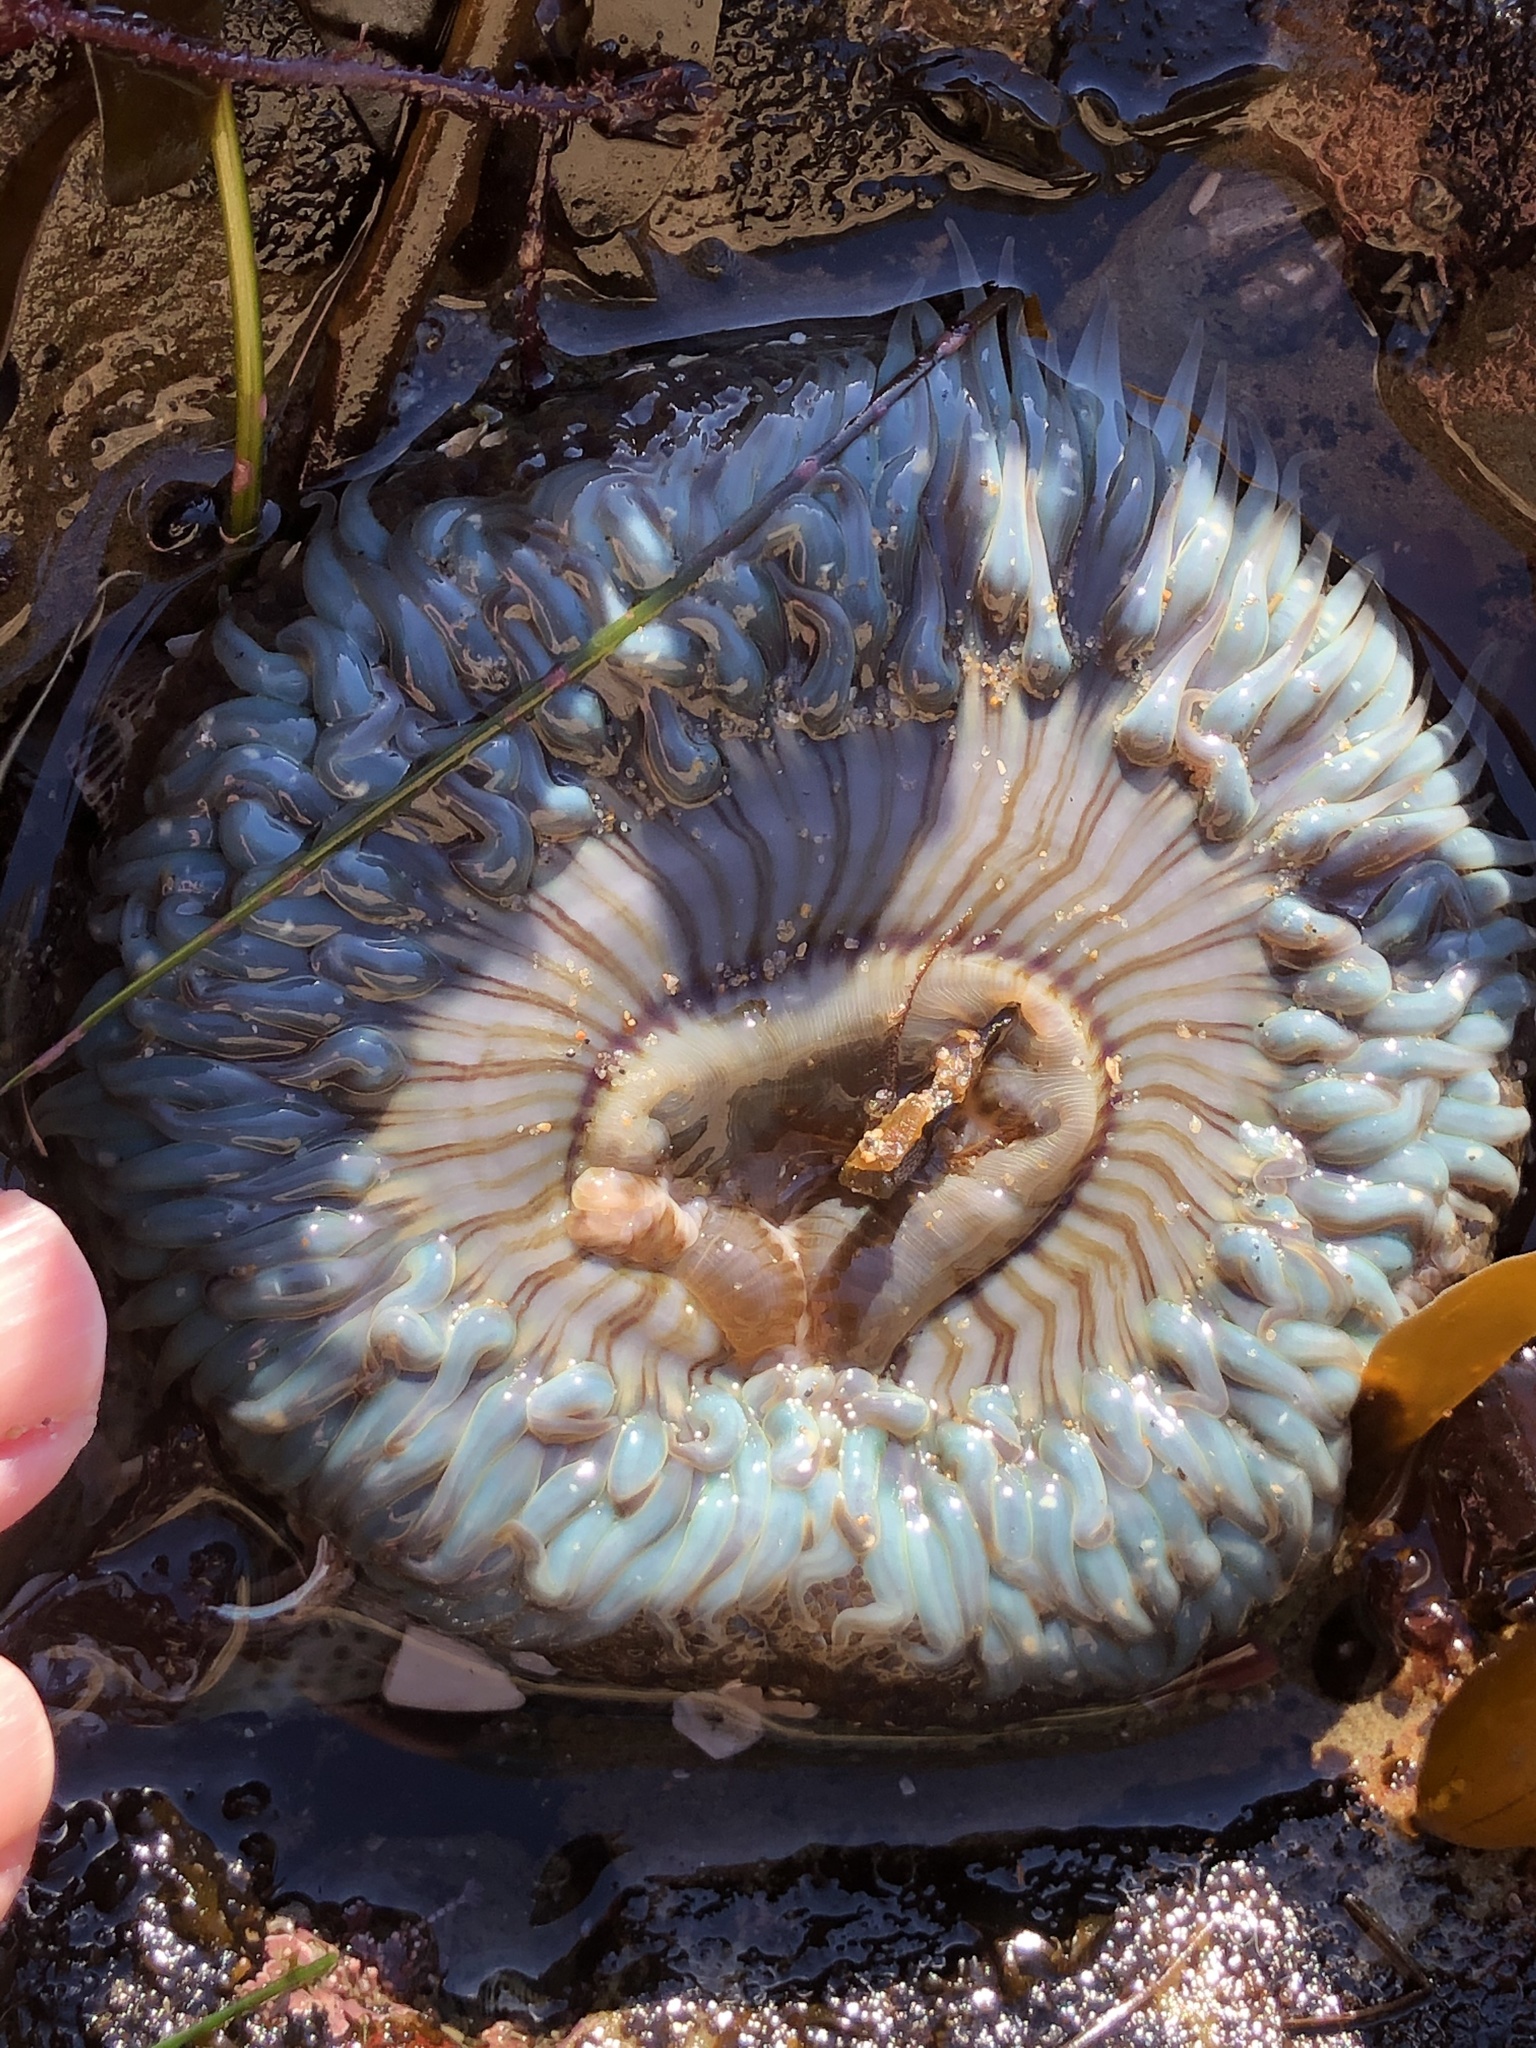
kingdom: Animalia
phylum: Cnidaria
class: Anthozoa
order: Actiniaria
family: Actiniidae
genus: Anthopleura
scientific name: Anthopleura sola
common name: Sun anemone
